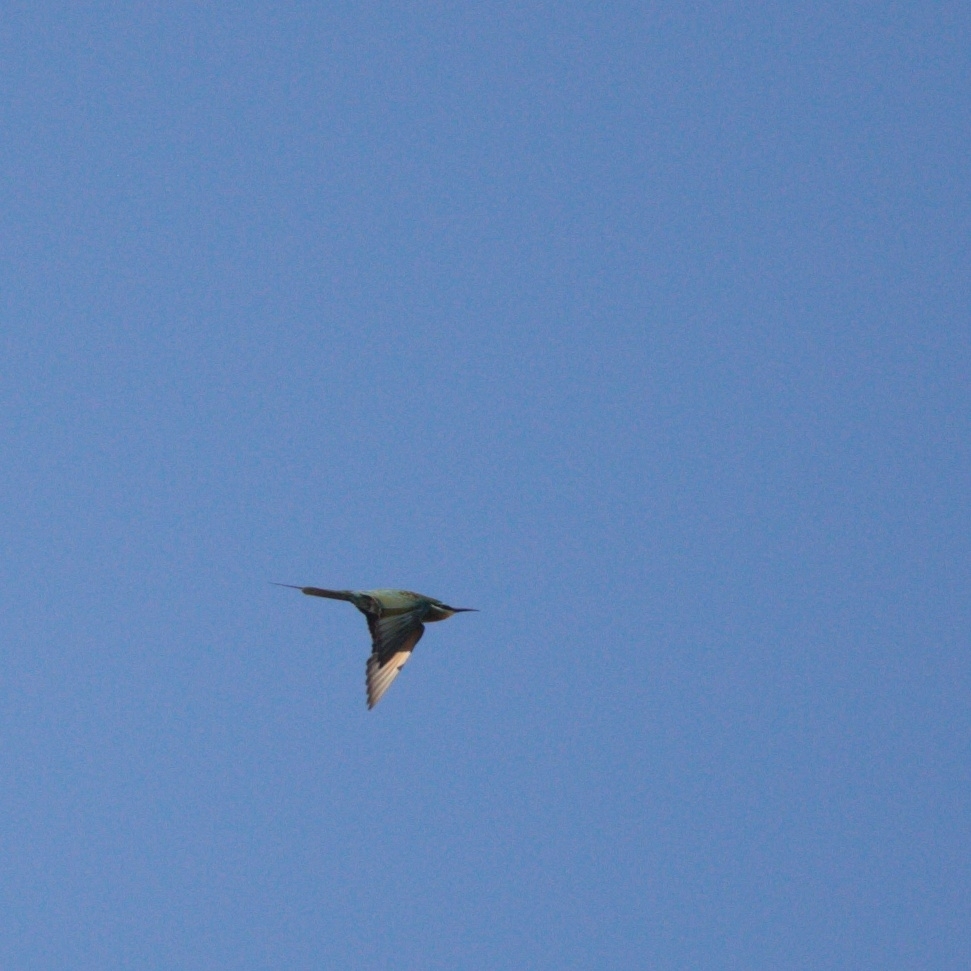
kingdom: Animalia
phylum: Chordata
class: Aves
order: Coraciiformes
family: Meropidae
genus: Merops
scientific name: Merops persicus
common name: Blue-cheeked bee-eater
